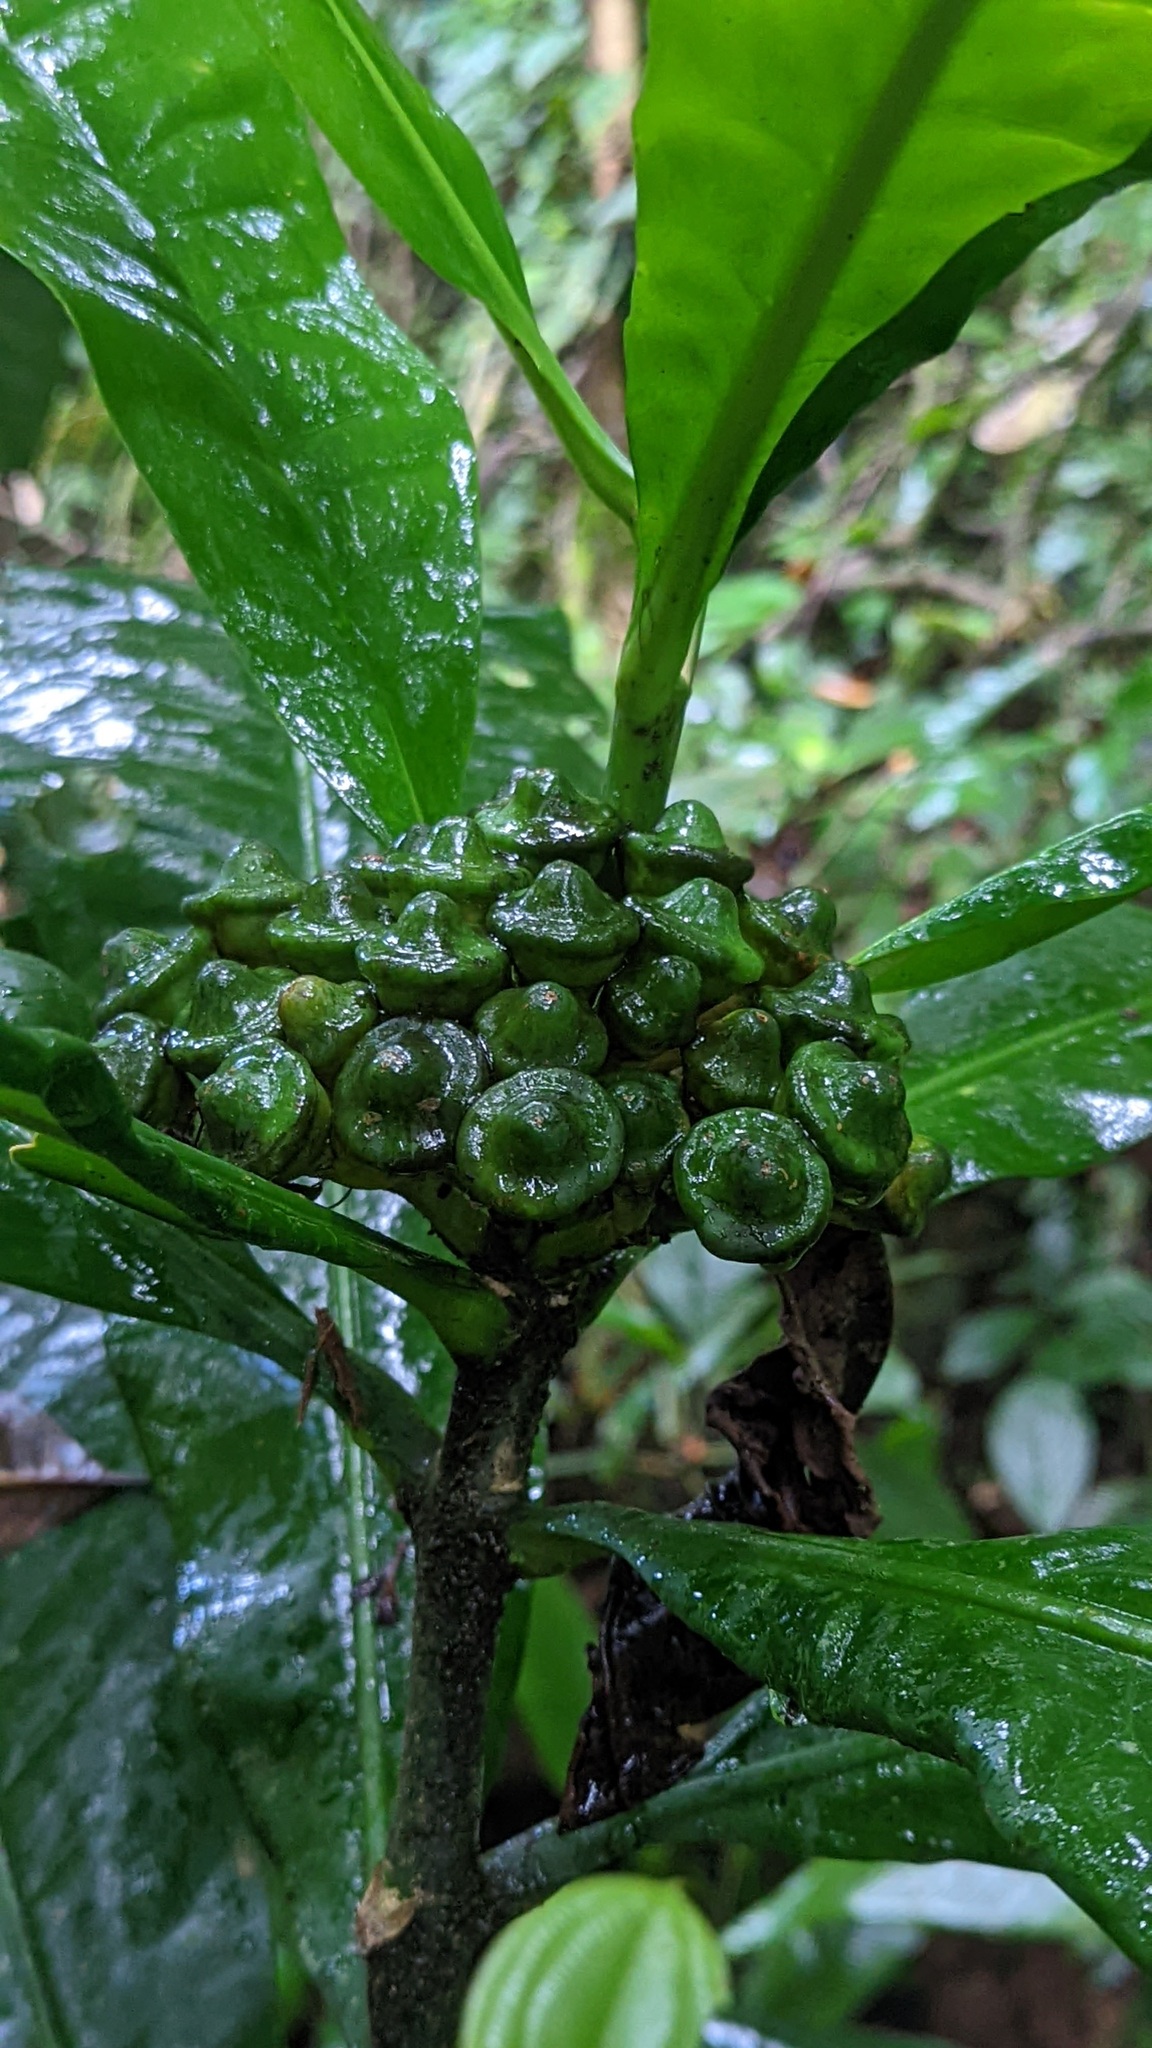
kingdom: Plantae
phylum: Tracheophyta
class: Magnoliopsida
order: Gentianales
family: Gentianaceae
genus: Potalia
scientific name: Potalia turbinata
